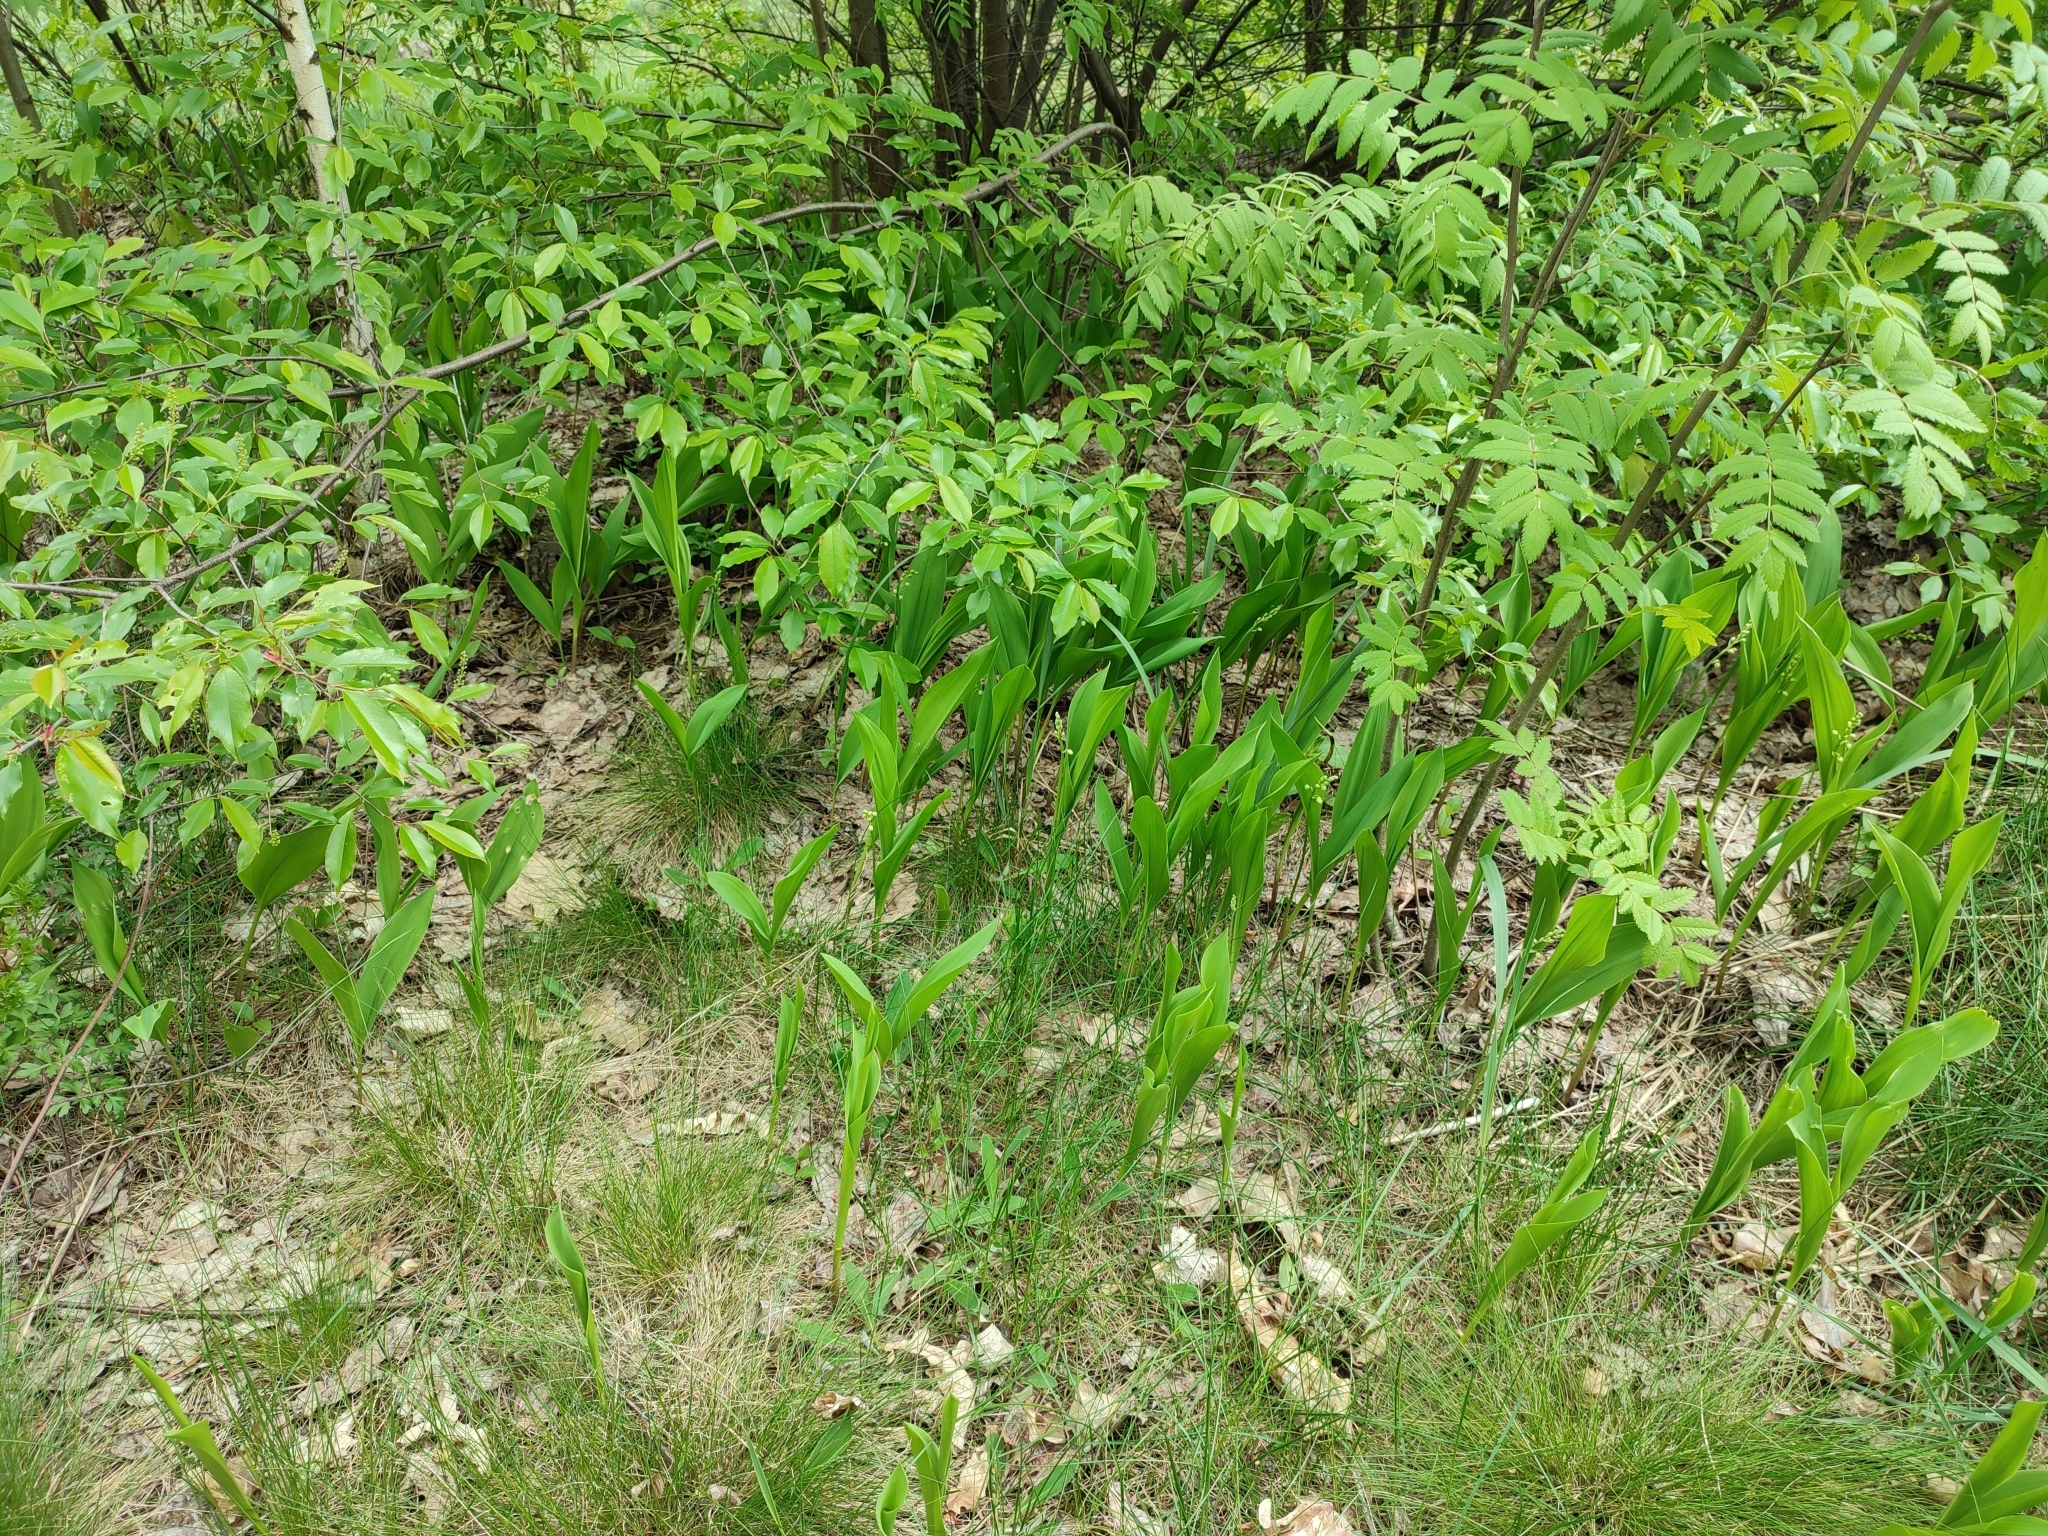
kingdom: Plantae
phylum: Tracheophyta
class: Liliopsida
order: Asparagales
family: Asparagaceae
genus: Convallaria
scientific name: Convallaria majalis
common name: Lily-of-the-valley
